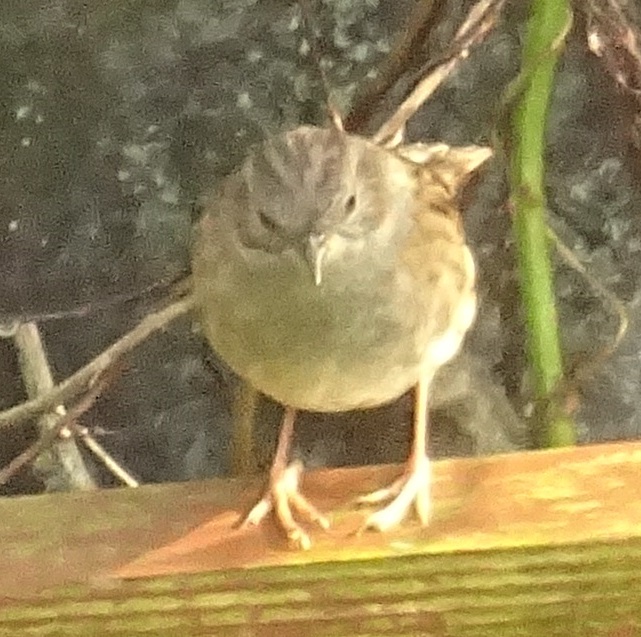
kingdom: Animalia
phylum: Chordata
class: Aves
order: Passeriformes
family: Prunellidae
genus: Prunella
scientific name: Prunella modularis
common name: Dunnock
